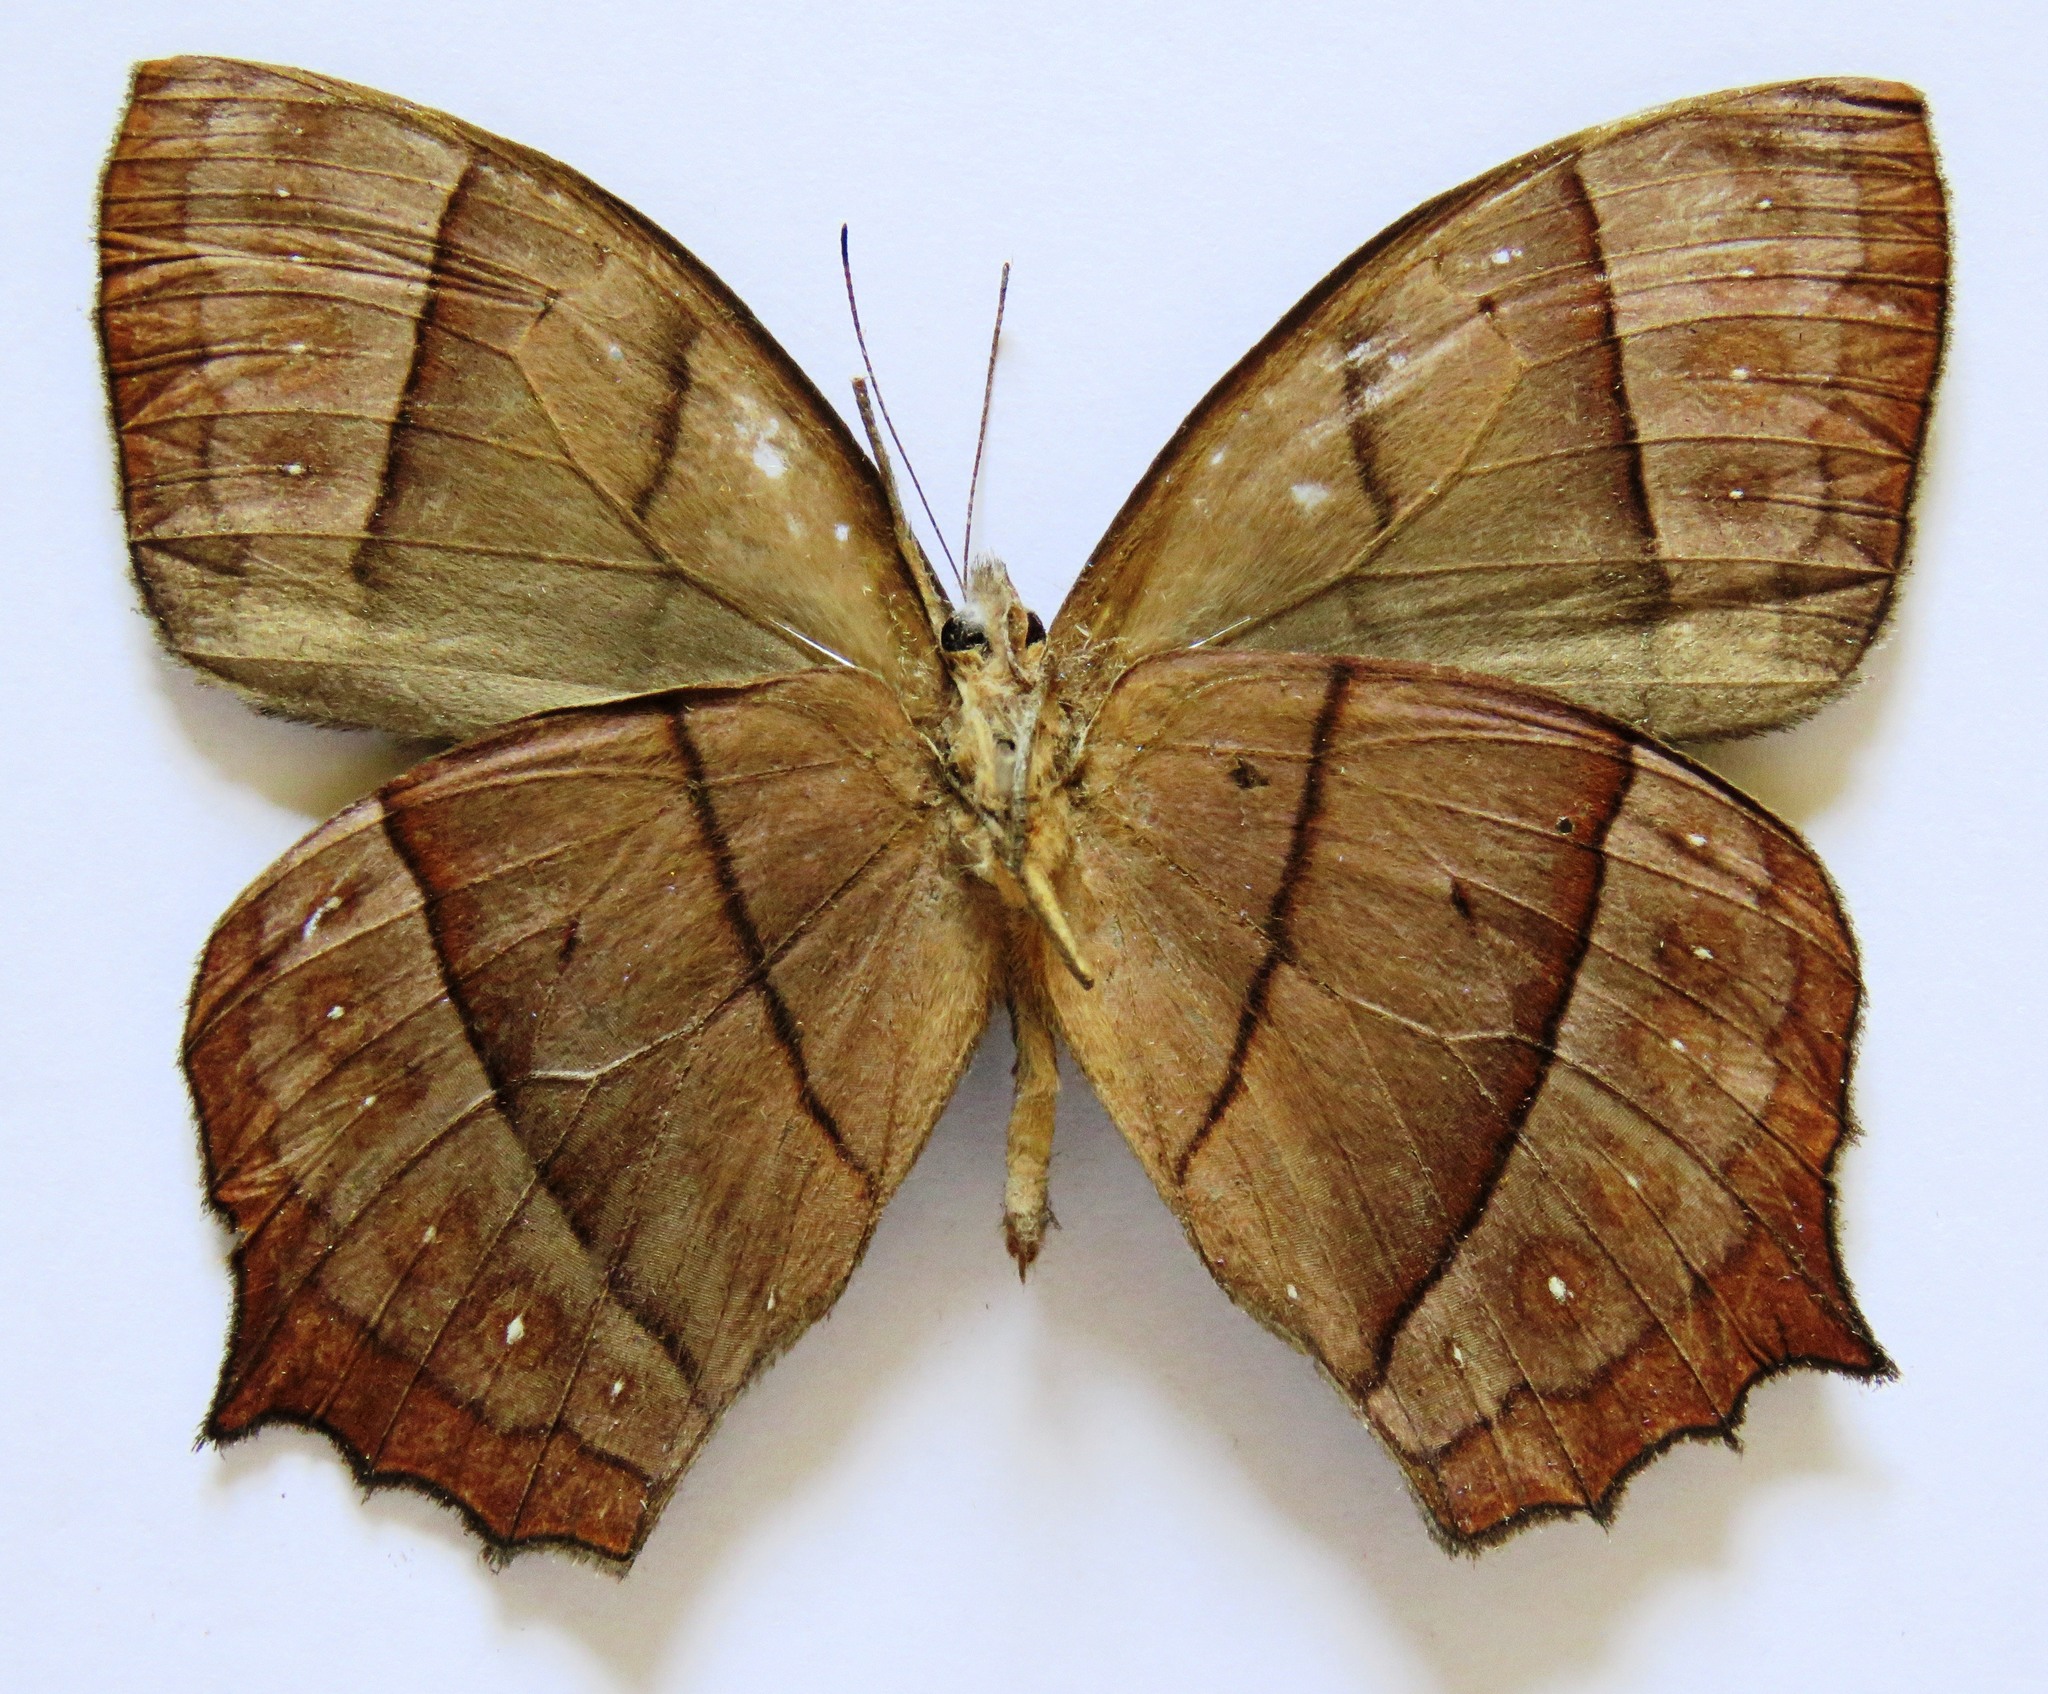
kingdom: Animalia
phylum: Arthropoda
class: Insecta
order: Lepidoptera
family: Nymphalidae
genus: Taygetis
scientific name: Taygetis virgilia
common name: Stub-tailed satyr
